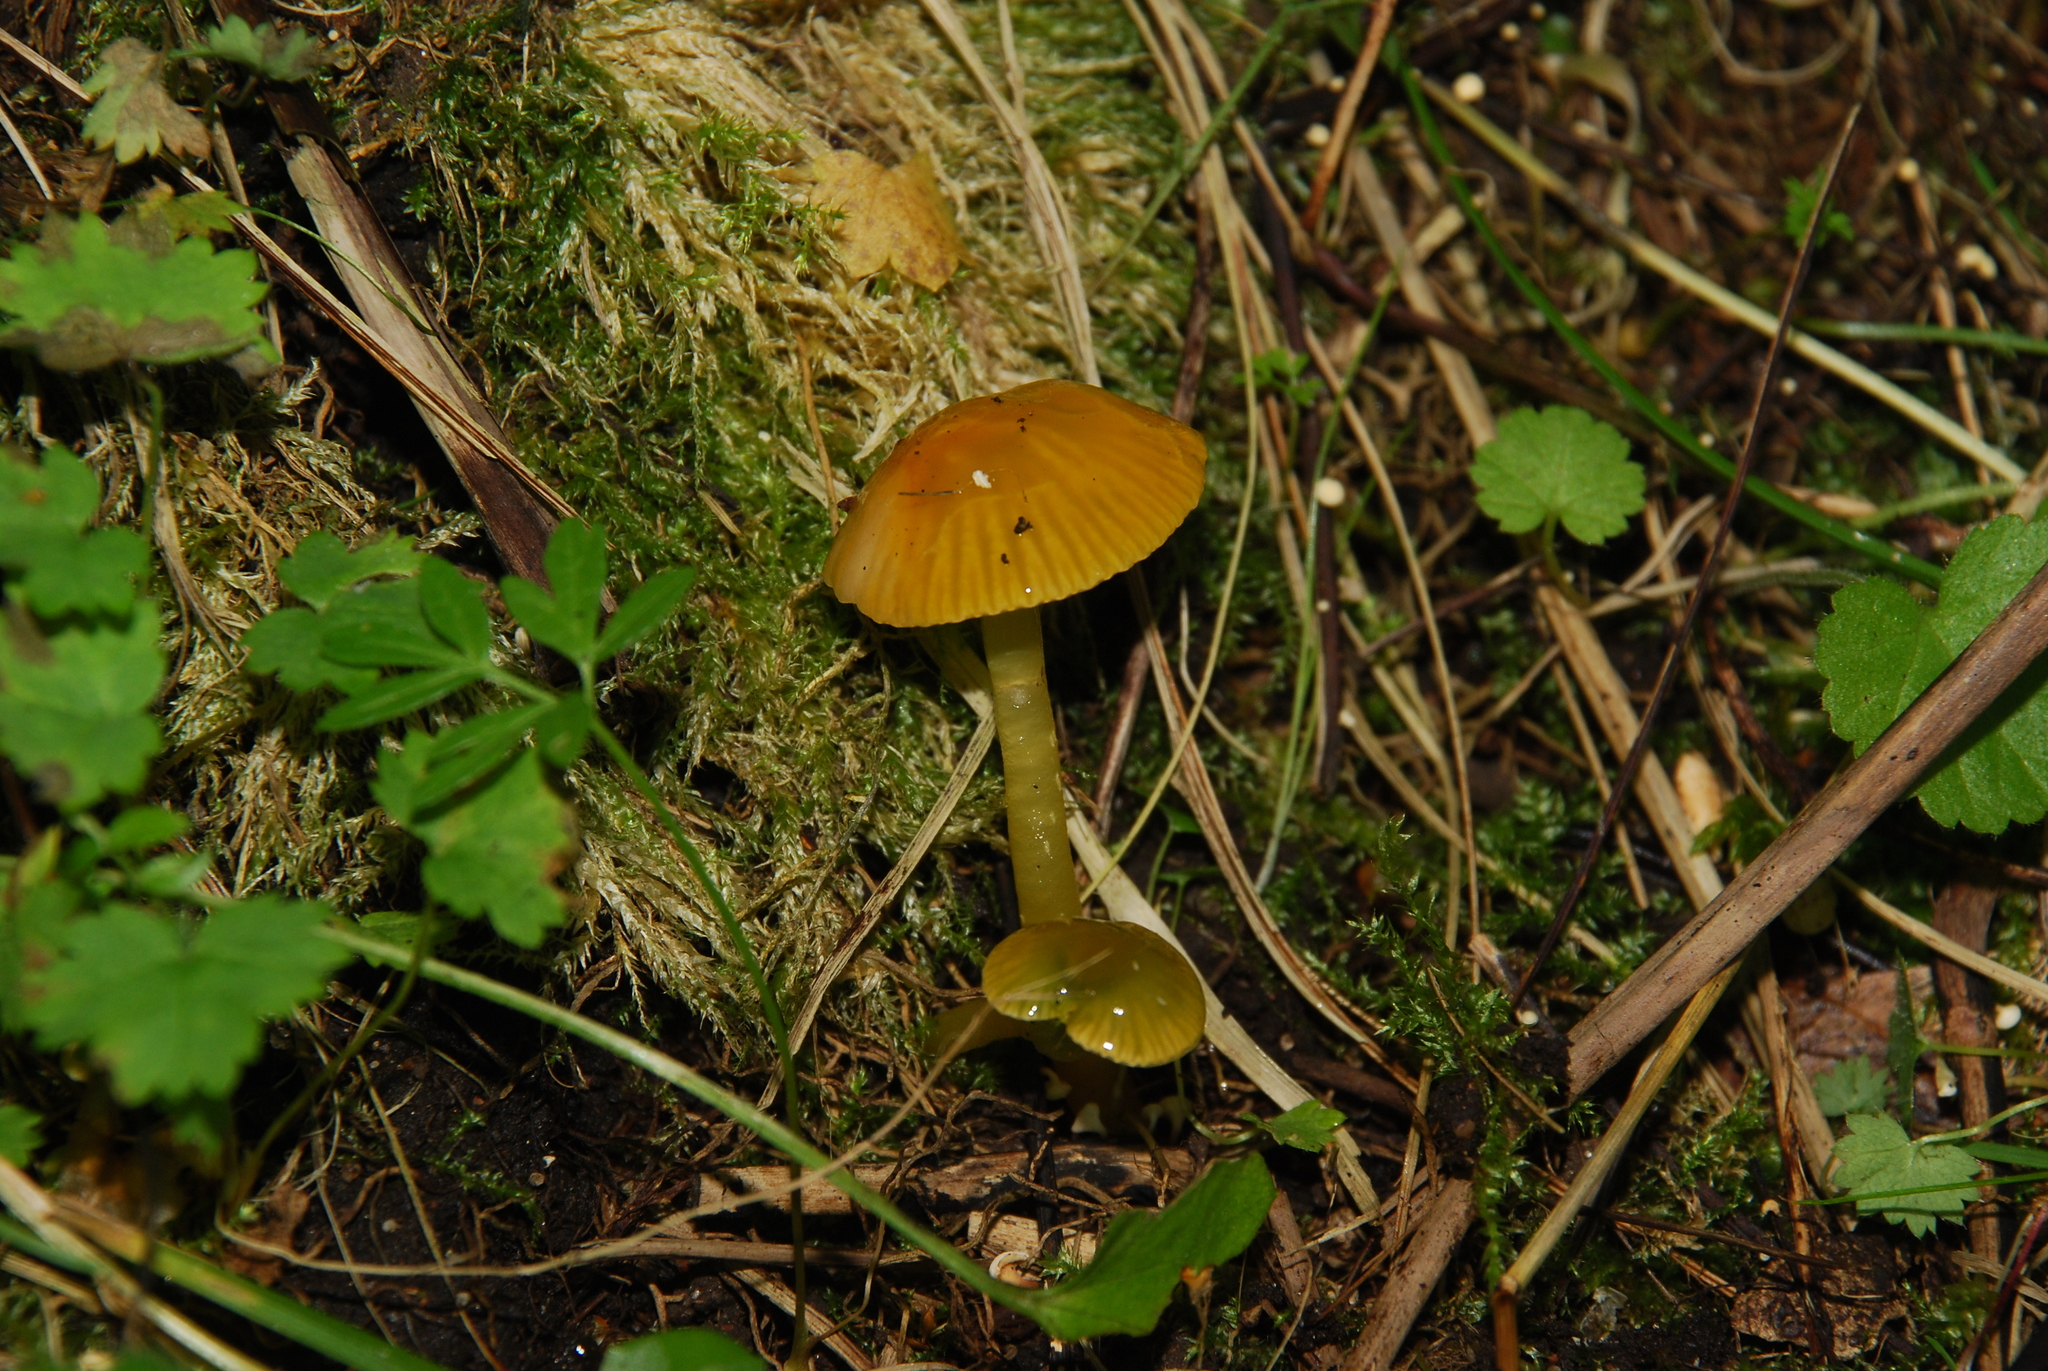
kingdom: Fungi
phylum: Basidiomycota
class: Agaricomycetes
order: Agaricales
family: Hygrophoraceae
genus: Gliophorus
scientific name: Gliophorus psittacinus
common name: Parrot wax-cap
